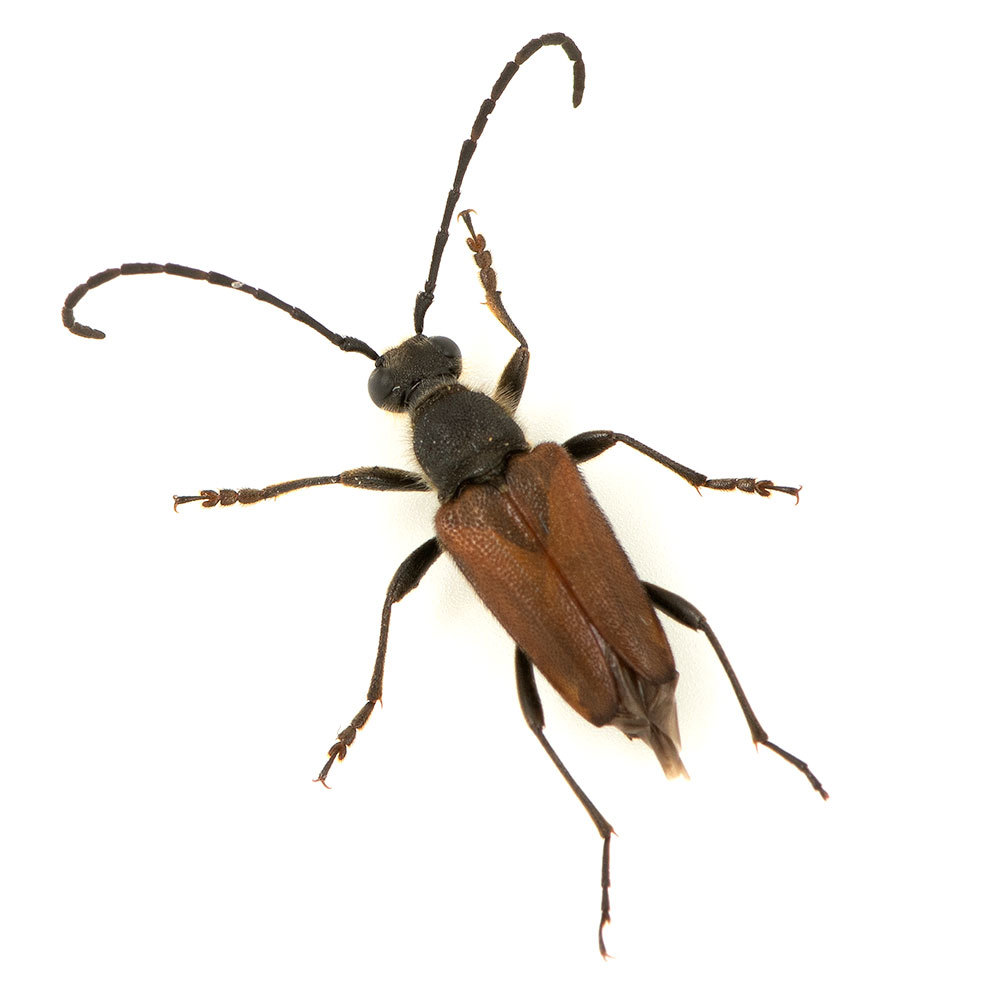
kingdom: Animalia
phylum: Arthropoda
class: Insecta
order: Coleoptera
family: Cerambycidae
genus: Anastrangalia
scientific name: Anastrangalia sanguinea
